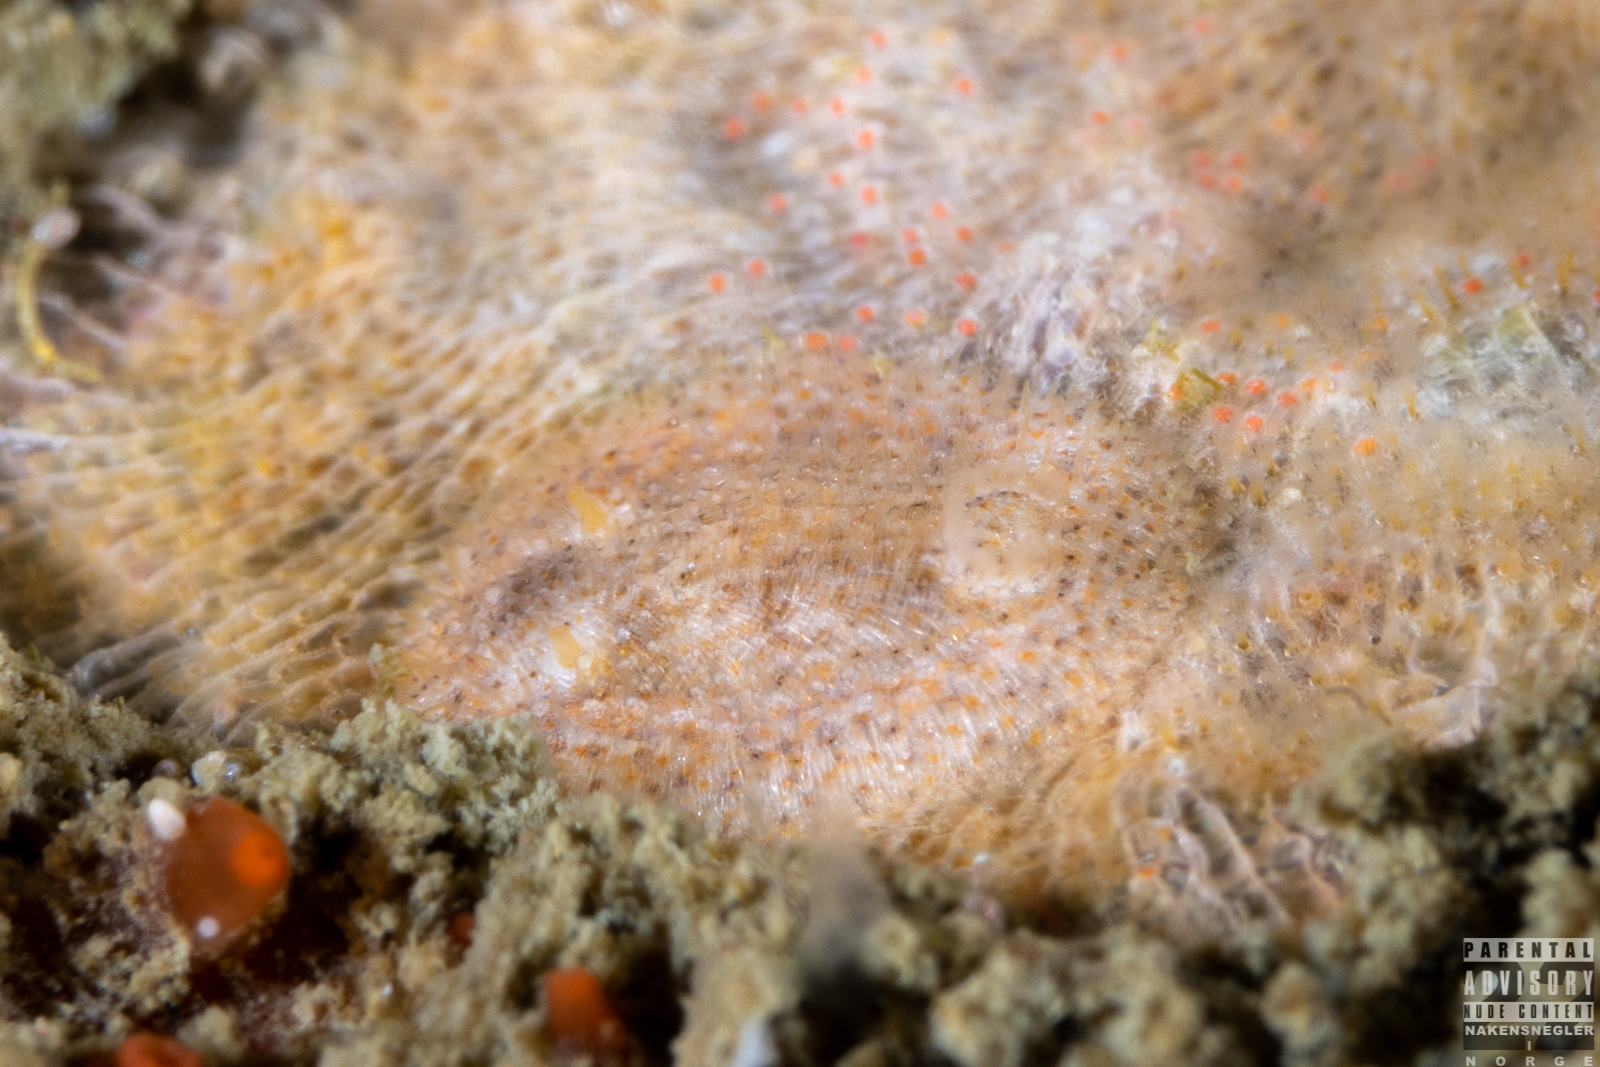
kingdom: Animalia
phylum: Mollusca
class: Gastropoda
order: Nudibranchia
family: Onchidorididae
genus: Idaliadoris
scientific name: Idaliadoris depressa
